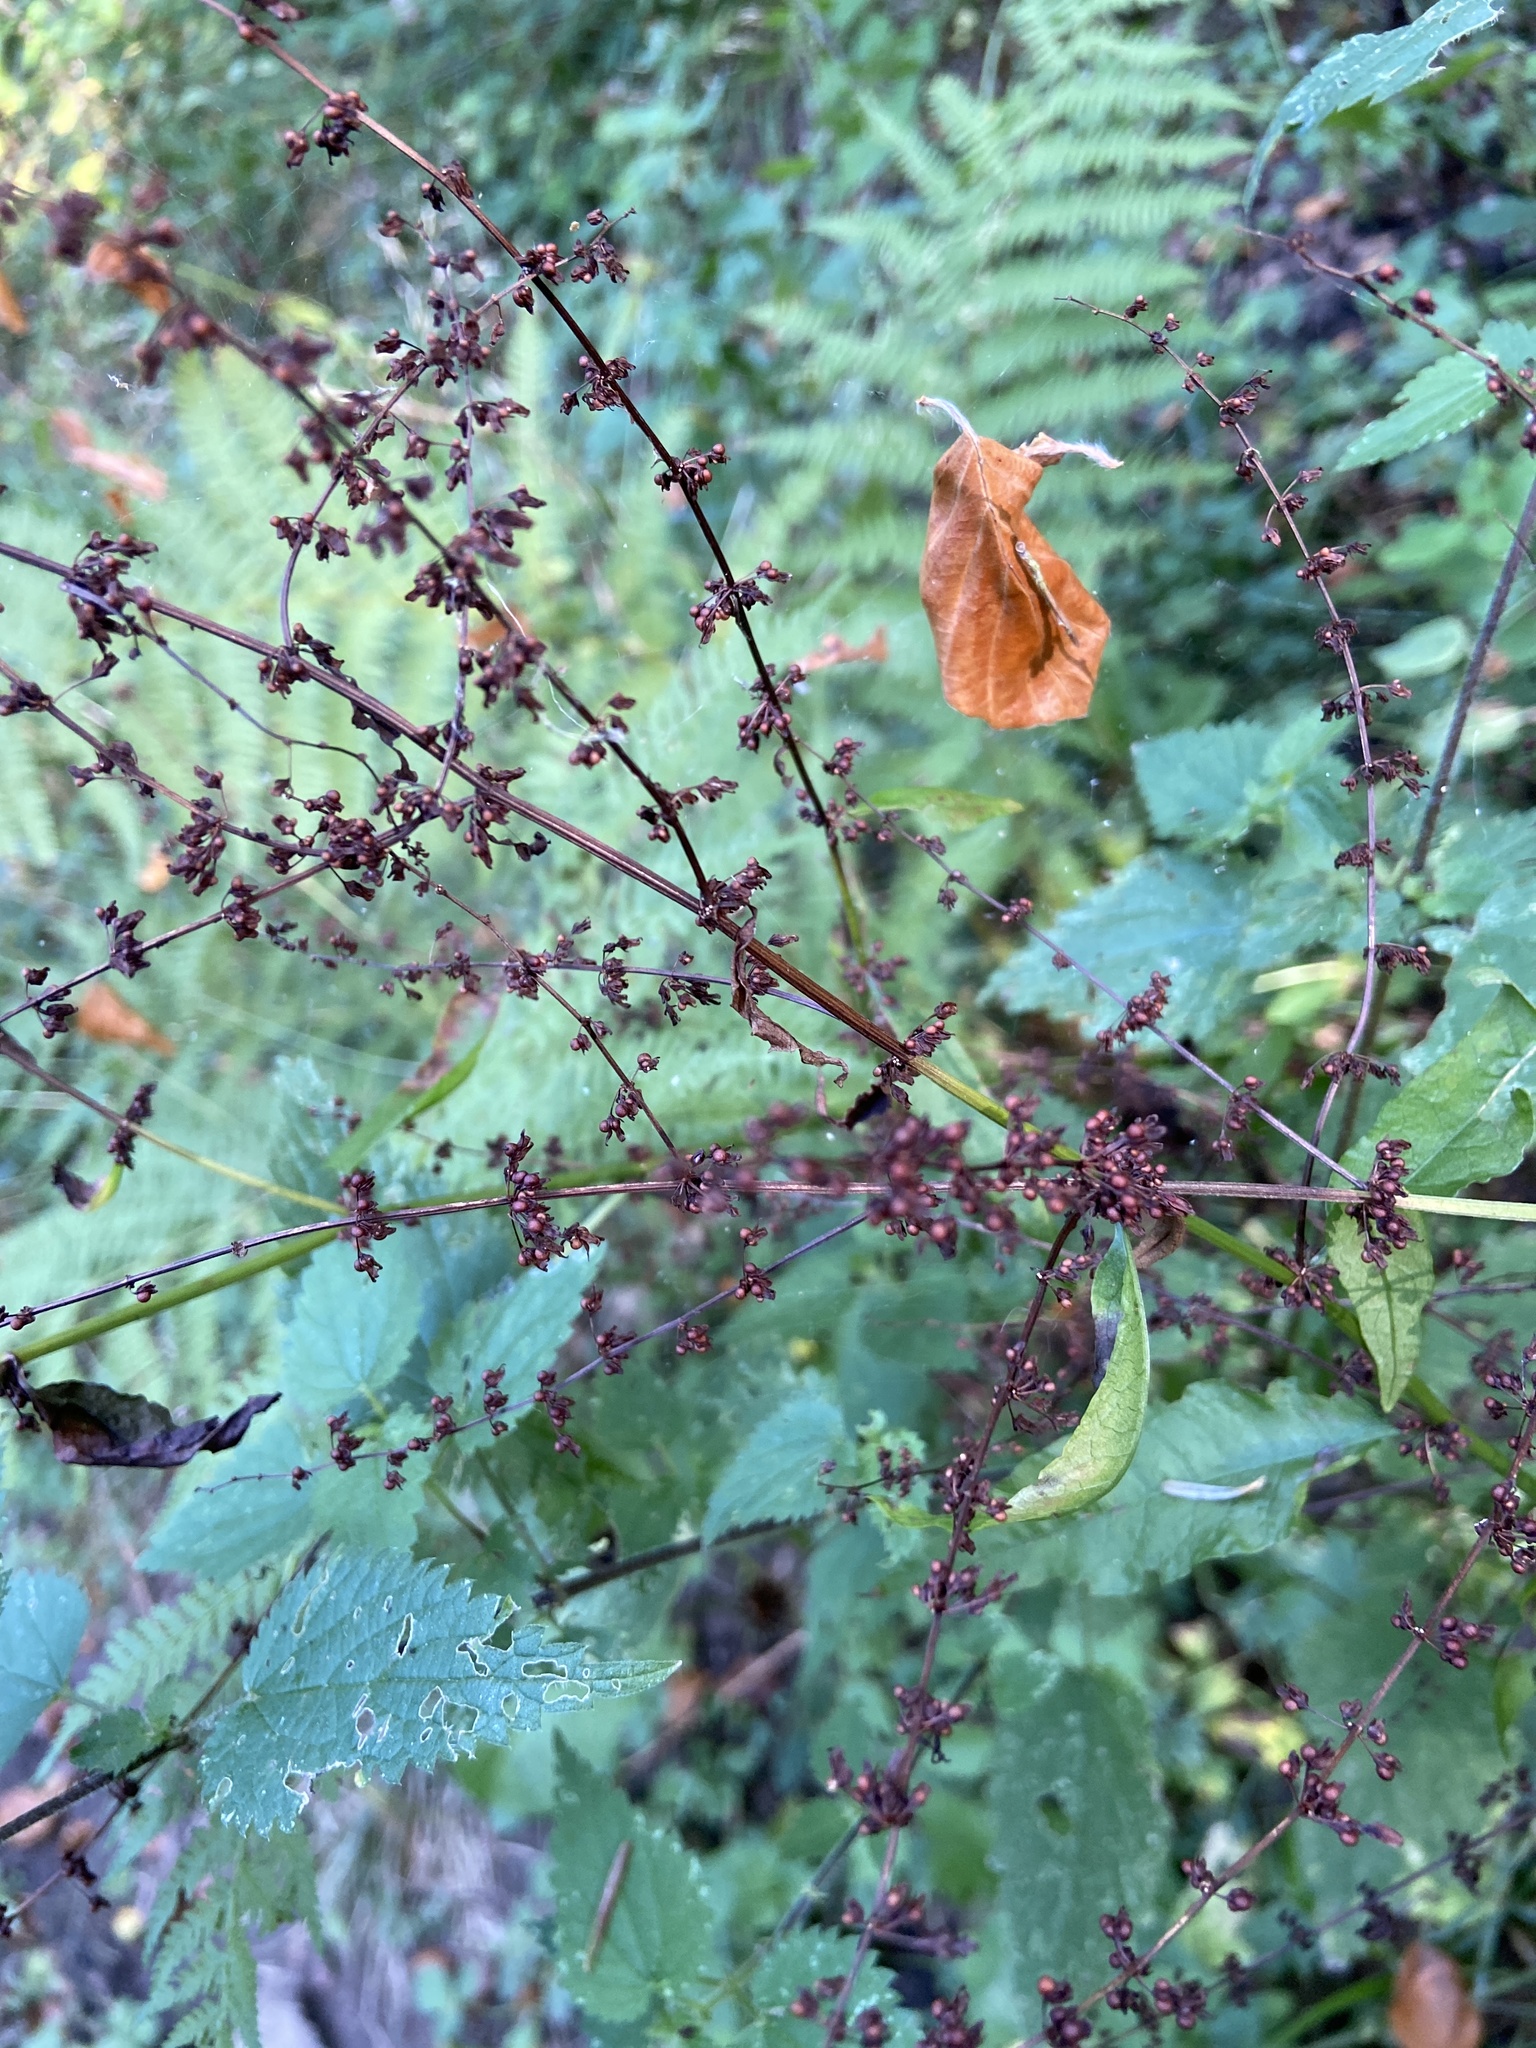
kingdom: Plantae
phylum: Tracheophyta
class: Magnoliopsida
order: Caryophyllales
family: Polygonaceae
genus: Rumex
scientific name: Rumex sanguineus
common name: Wood dock
